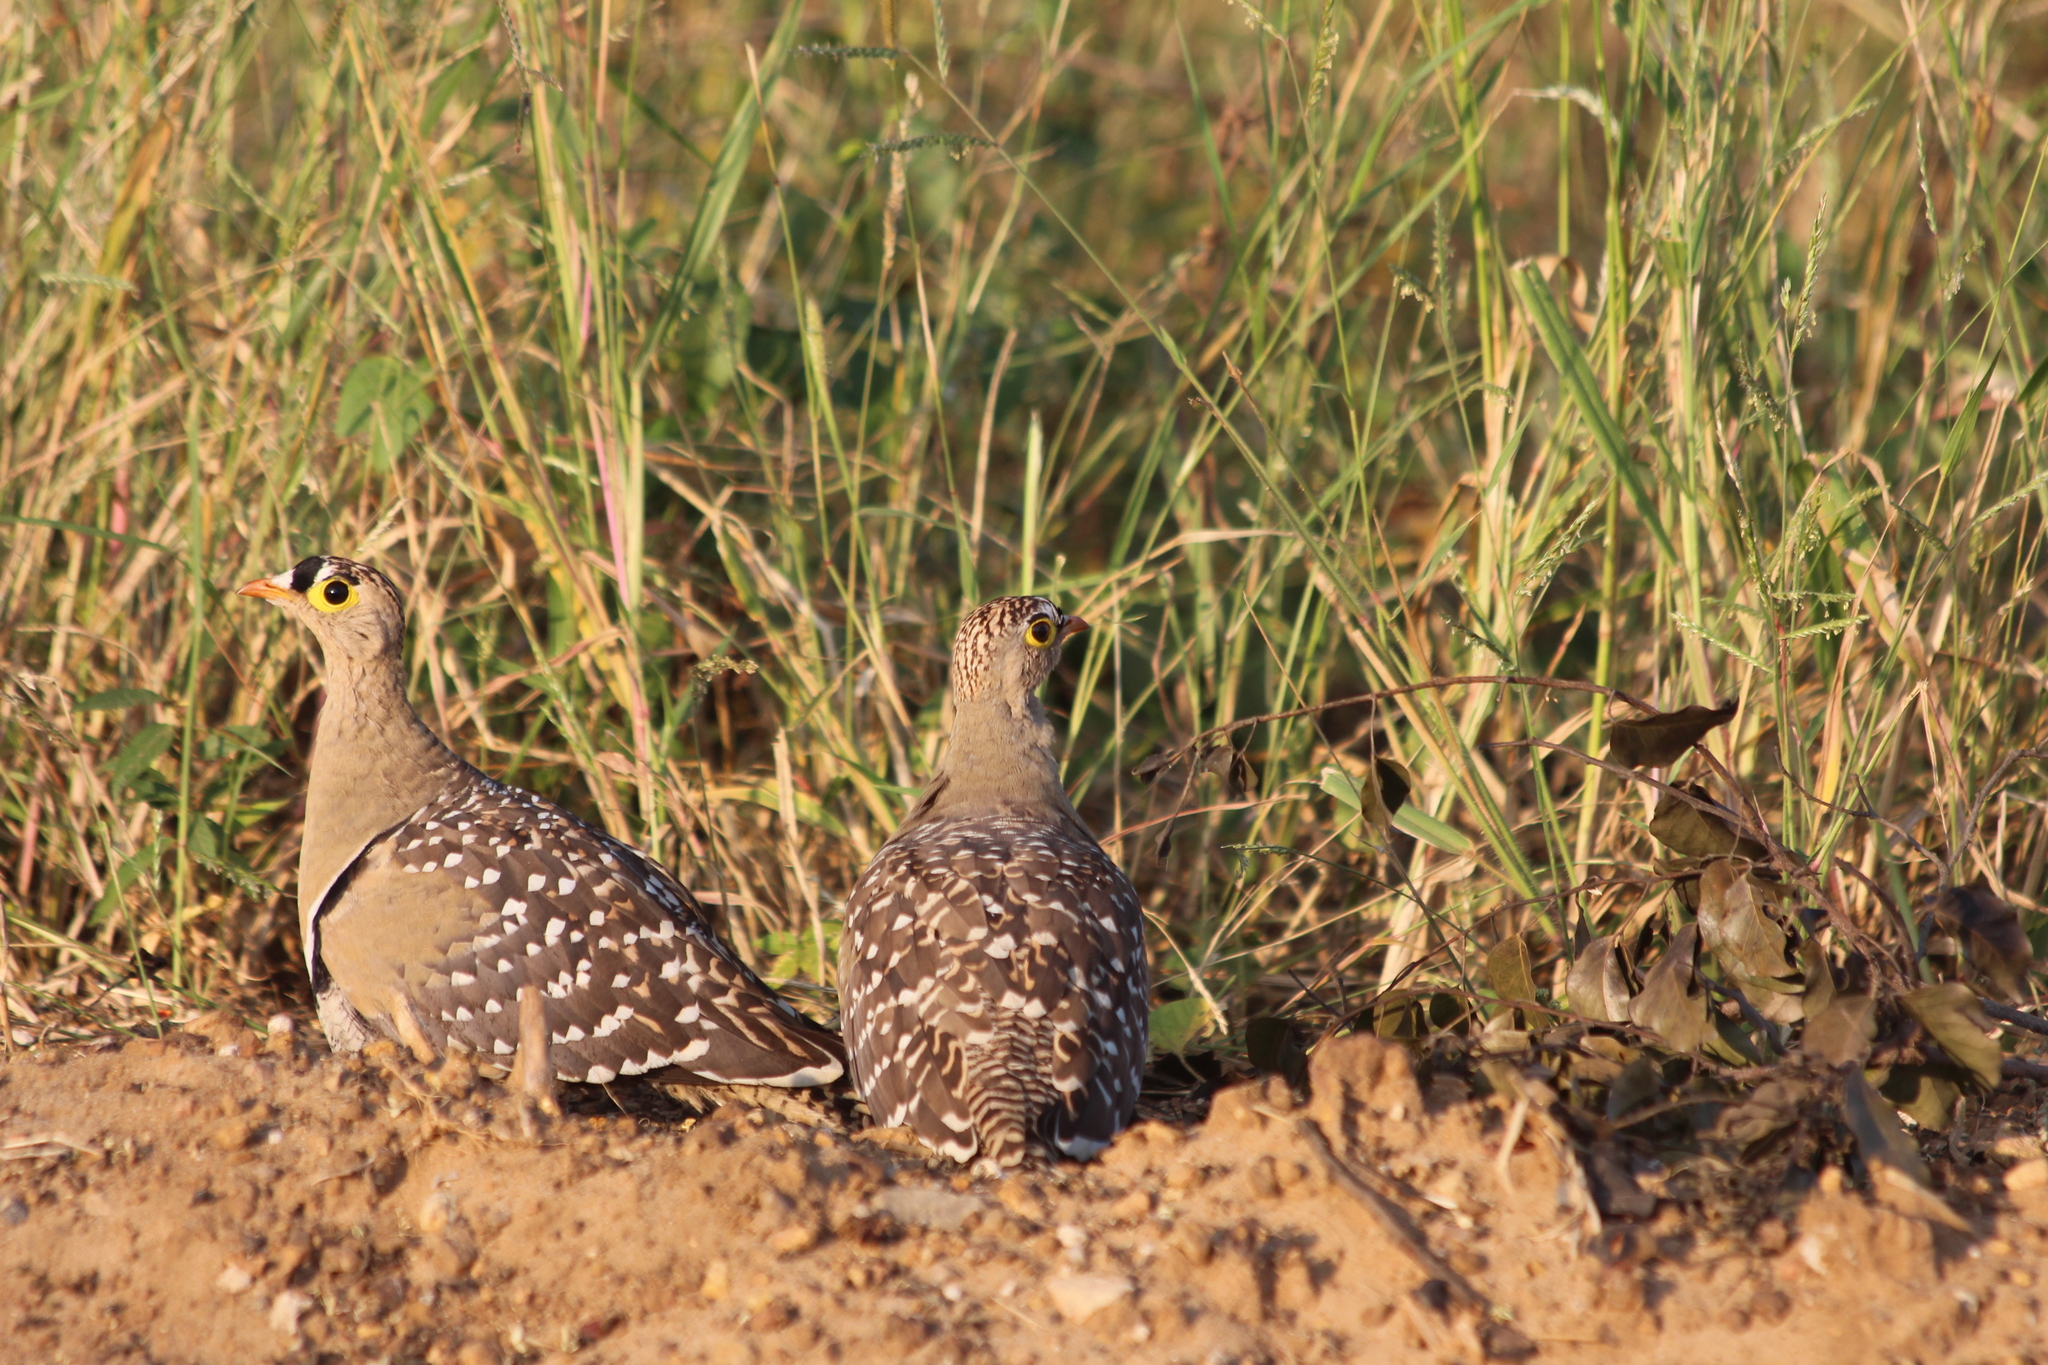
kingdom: Animalia
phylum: Chordata
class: Aves
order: Pteroclidiformes
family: Pteroclididae
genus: Pterocles
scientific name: Pterocles bicinctus
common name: Double-banded sandgrouse
